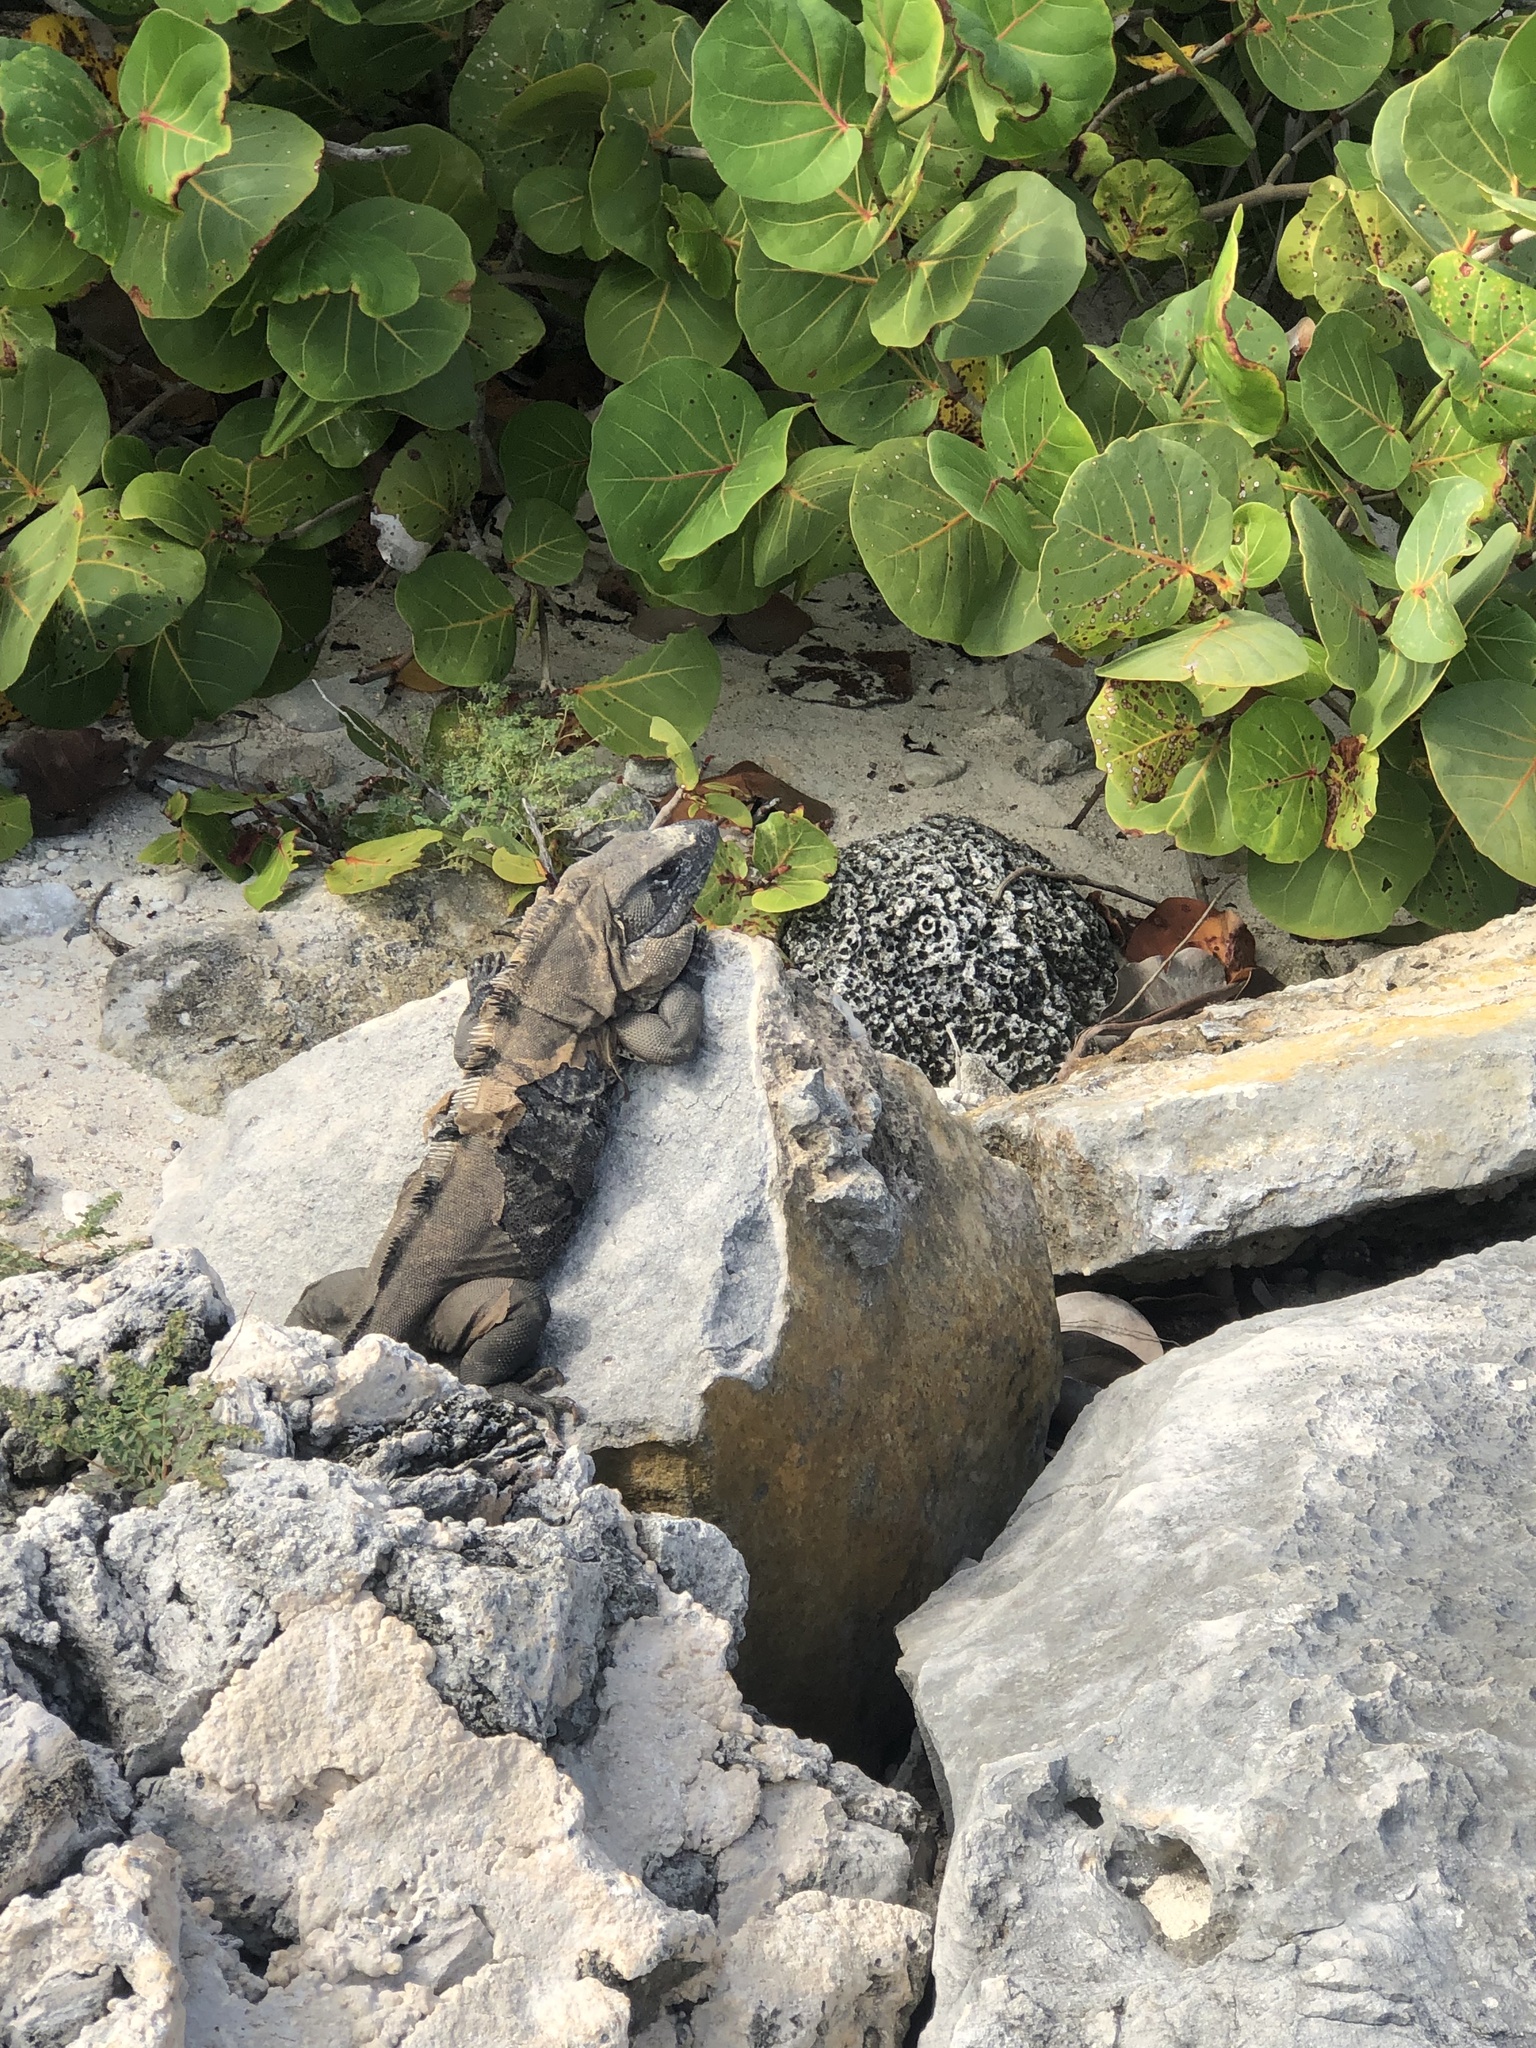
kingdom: Animalia
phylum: Chordata
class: Squamata
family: Iguanidae
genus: Ctenosaura
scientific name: Ctenosaura similis
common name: Black spiny-tailed iguana
